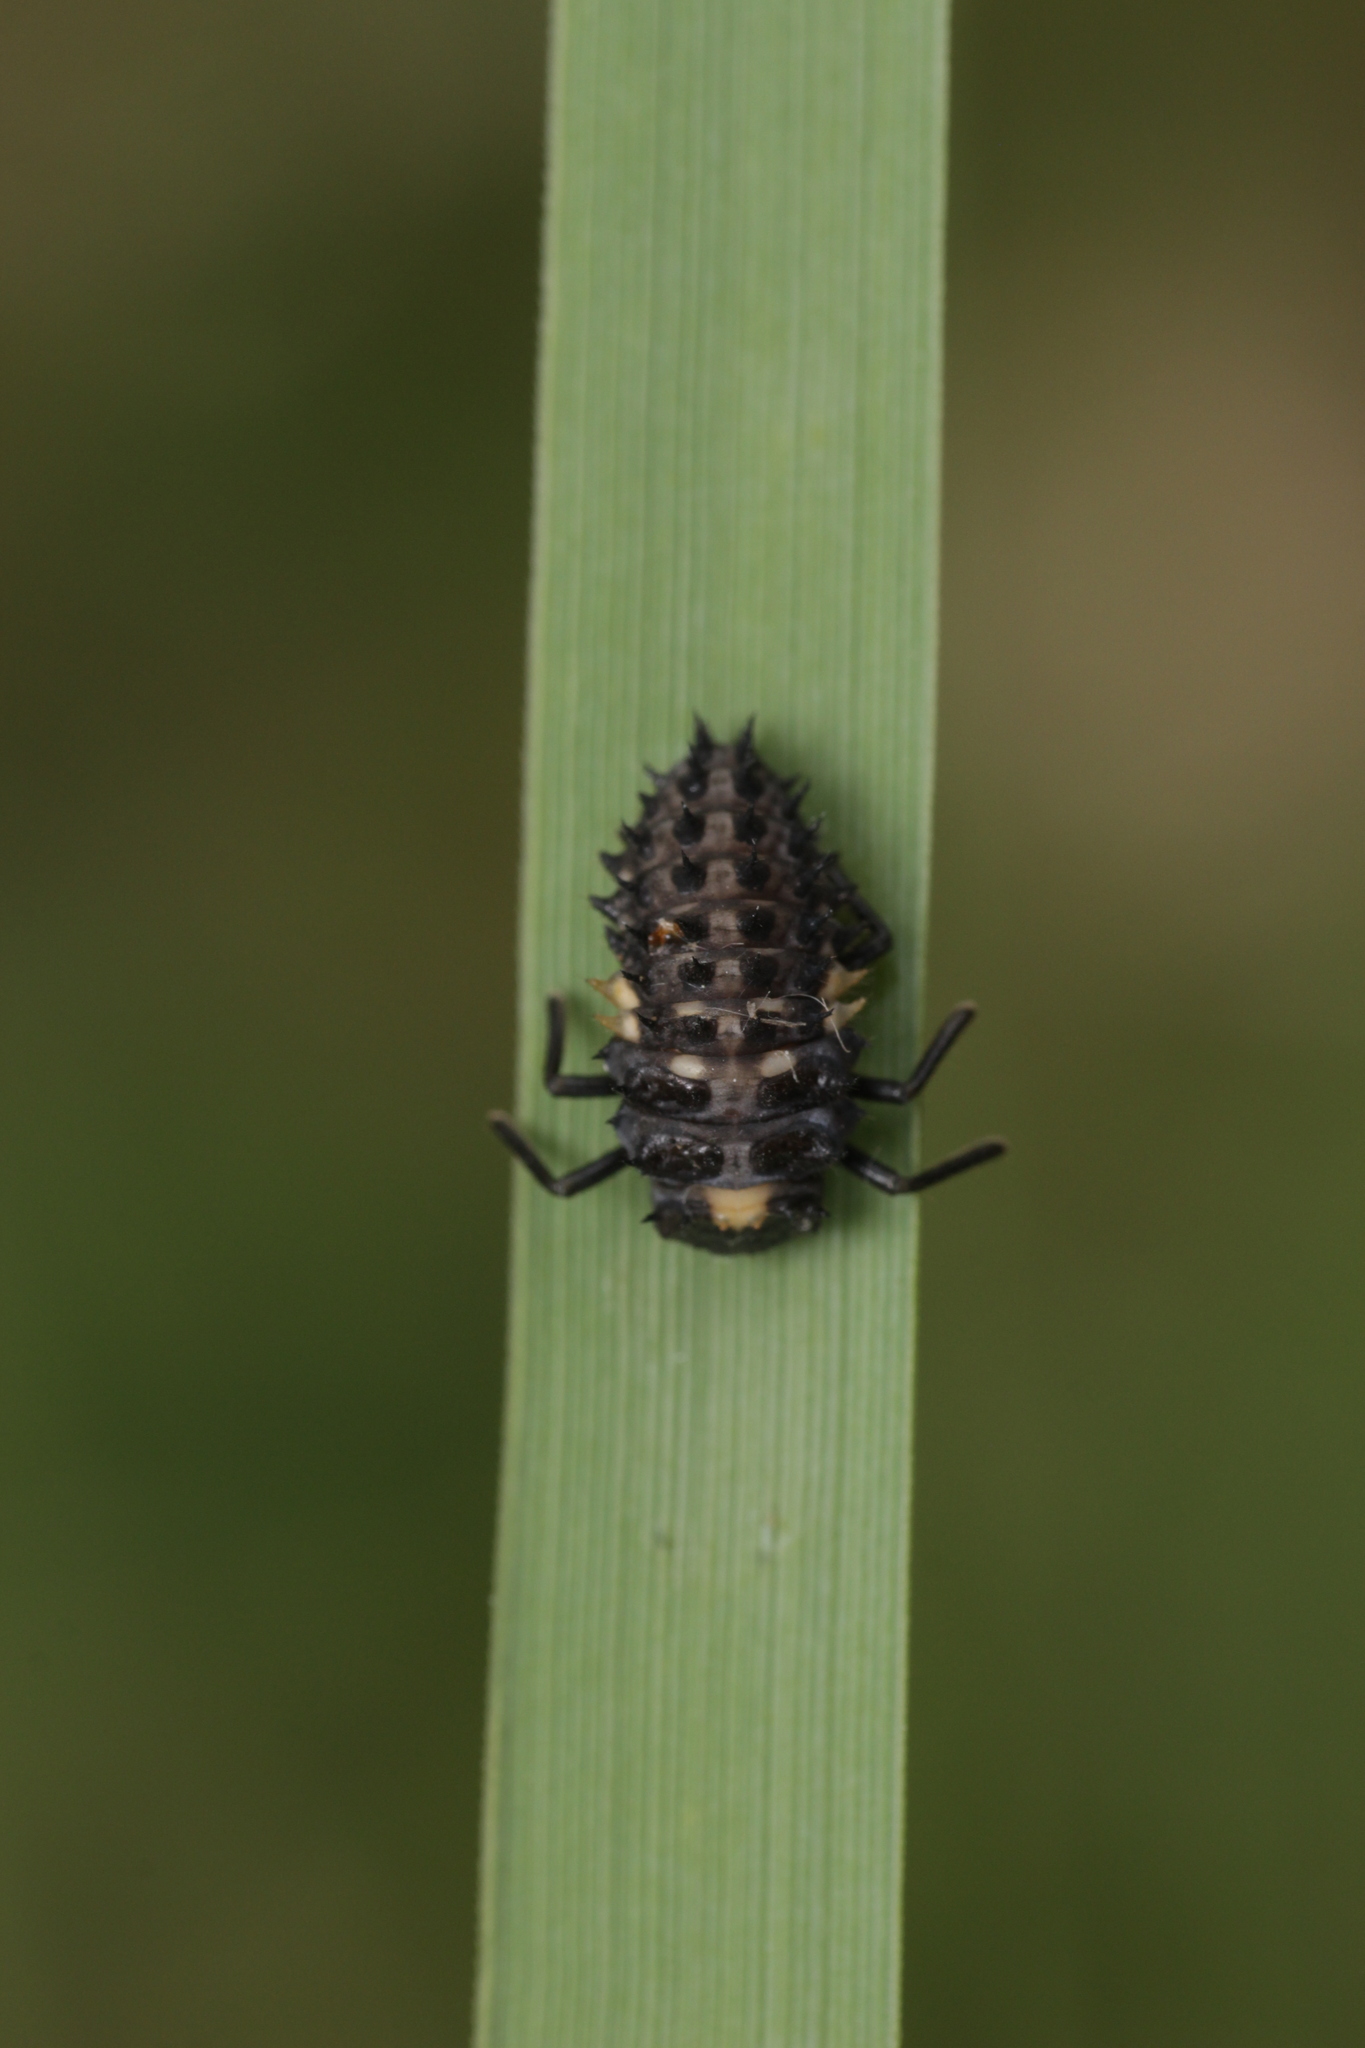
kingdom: Animalia
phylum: Arthropoda
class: Insecta
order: Coleoptera
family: Coccinellidae
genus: Anatis
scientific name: Anatis ocellata
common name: Eyed ladybird
